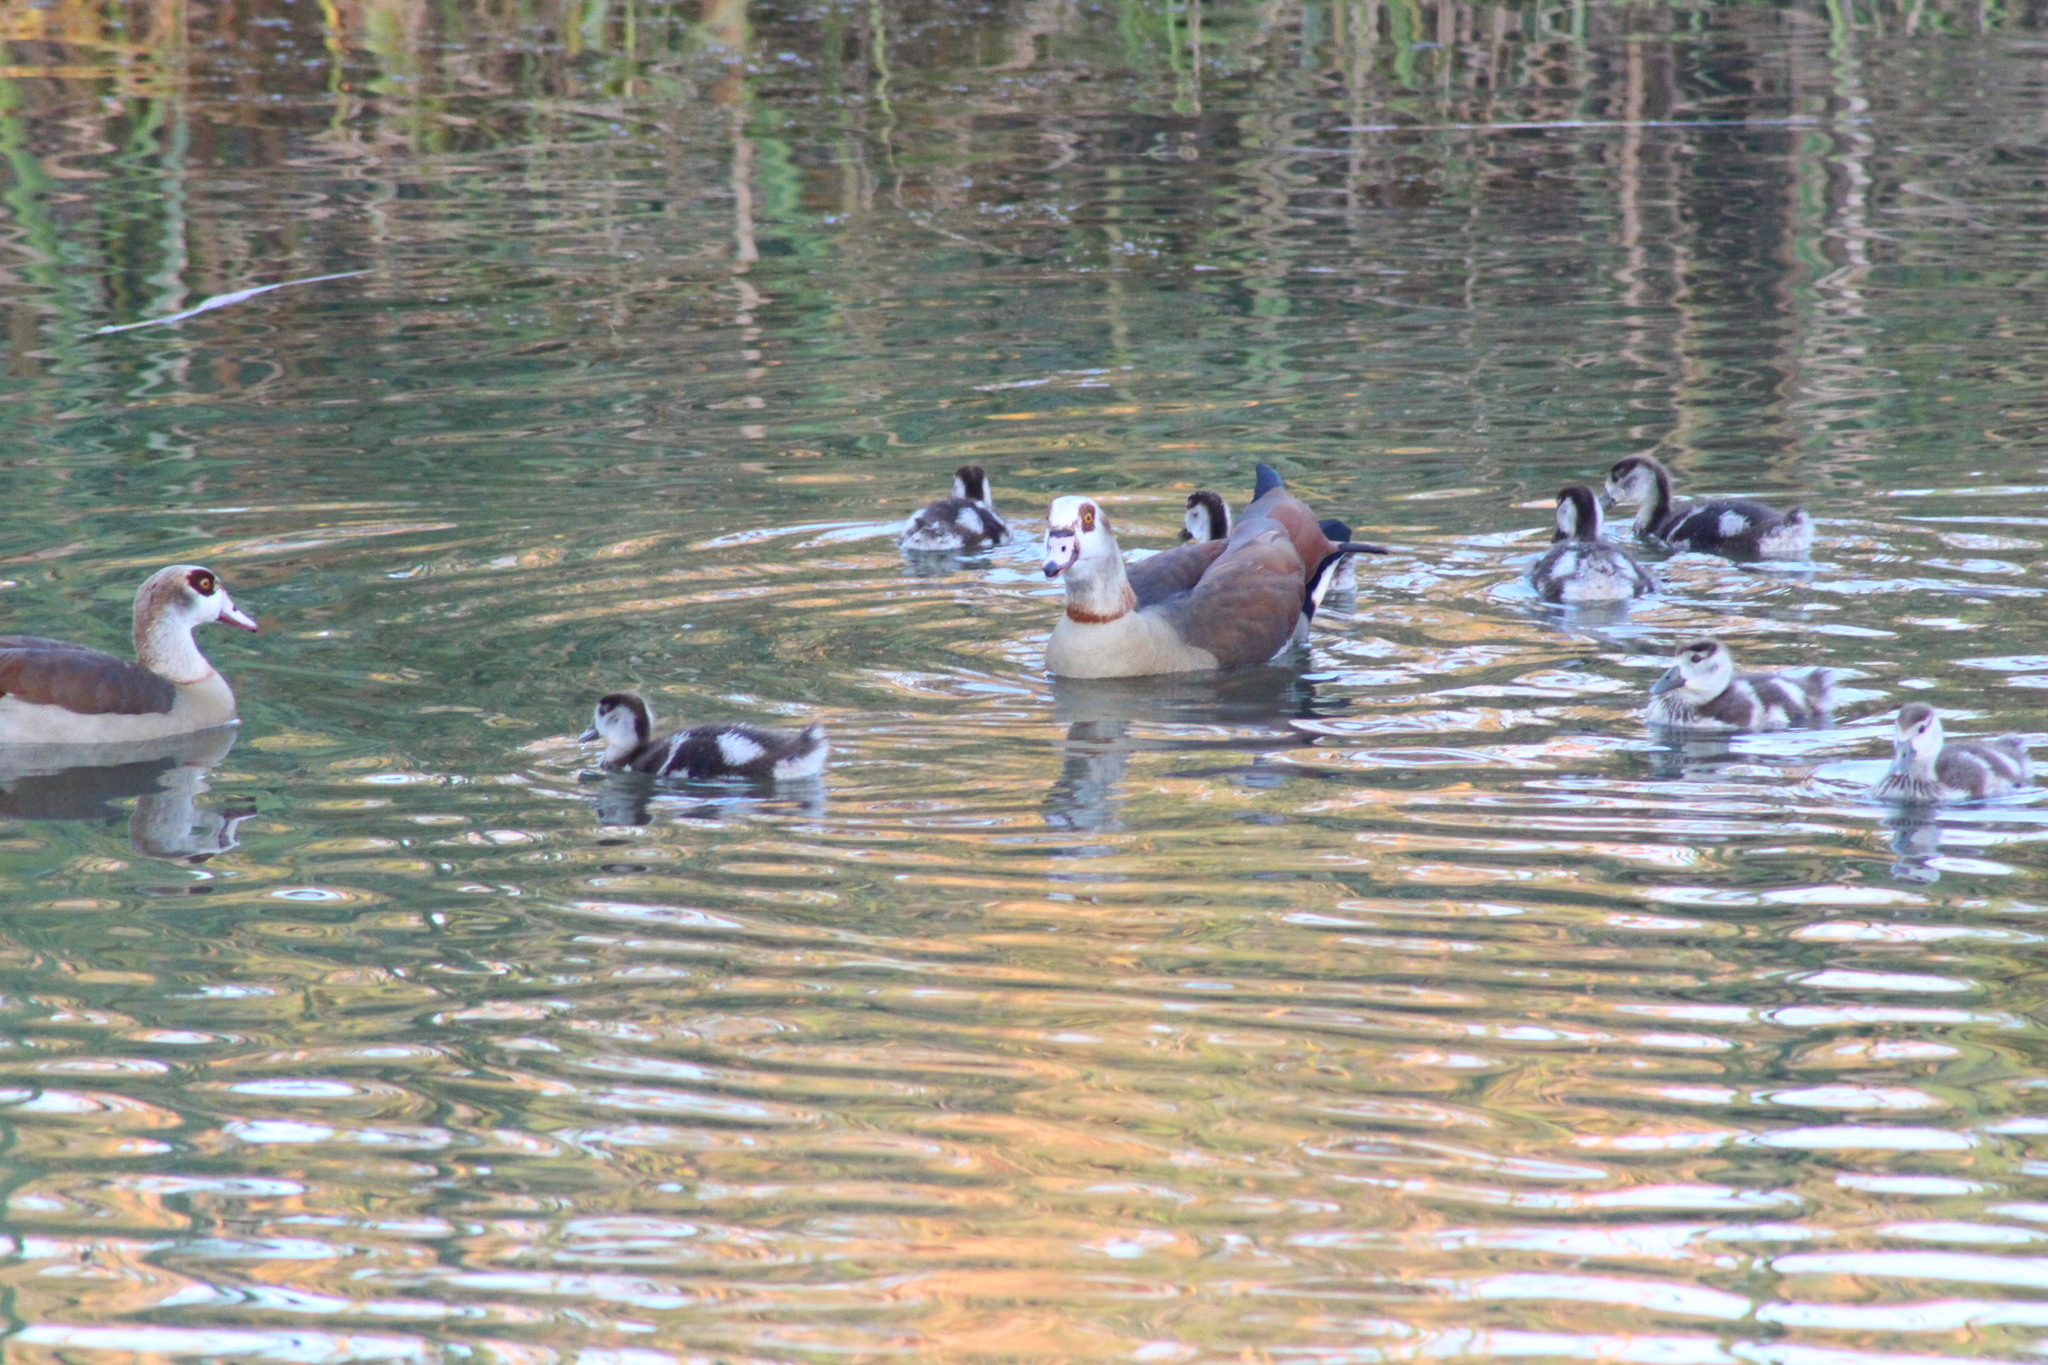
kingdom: Animalia
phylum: Chordata
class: Aves
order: Anseriformes
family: Anatidae
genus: Alopochen
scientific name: Alopochen aegyptiaca
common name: Egyptian goose
